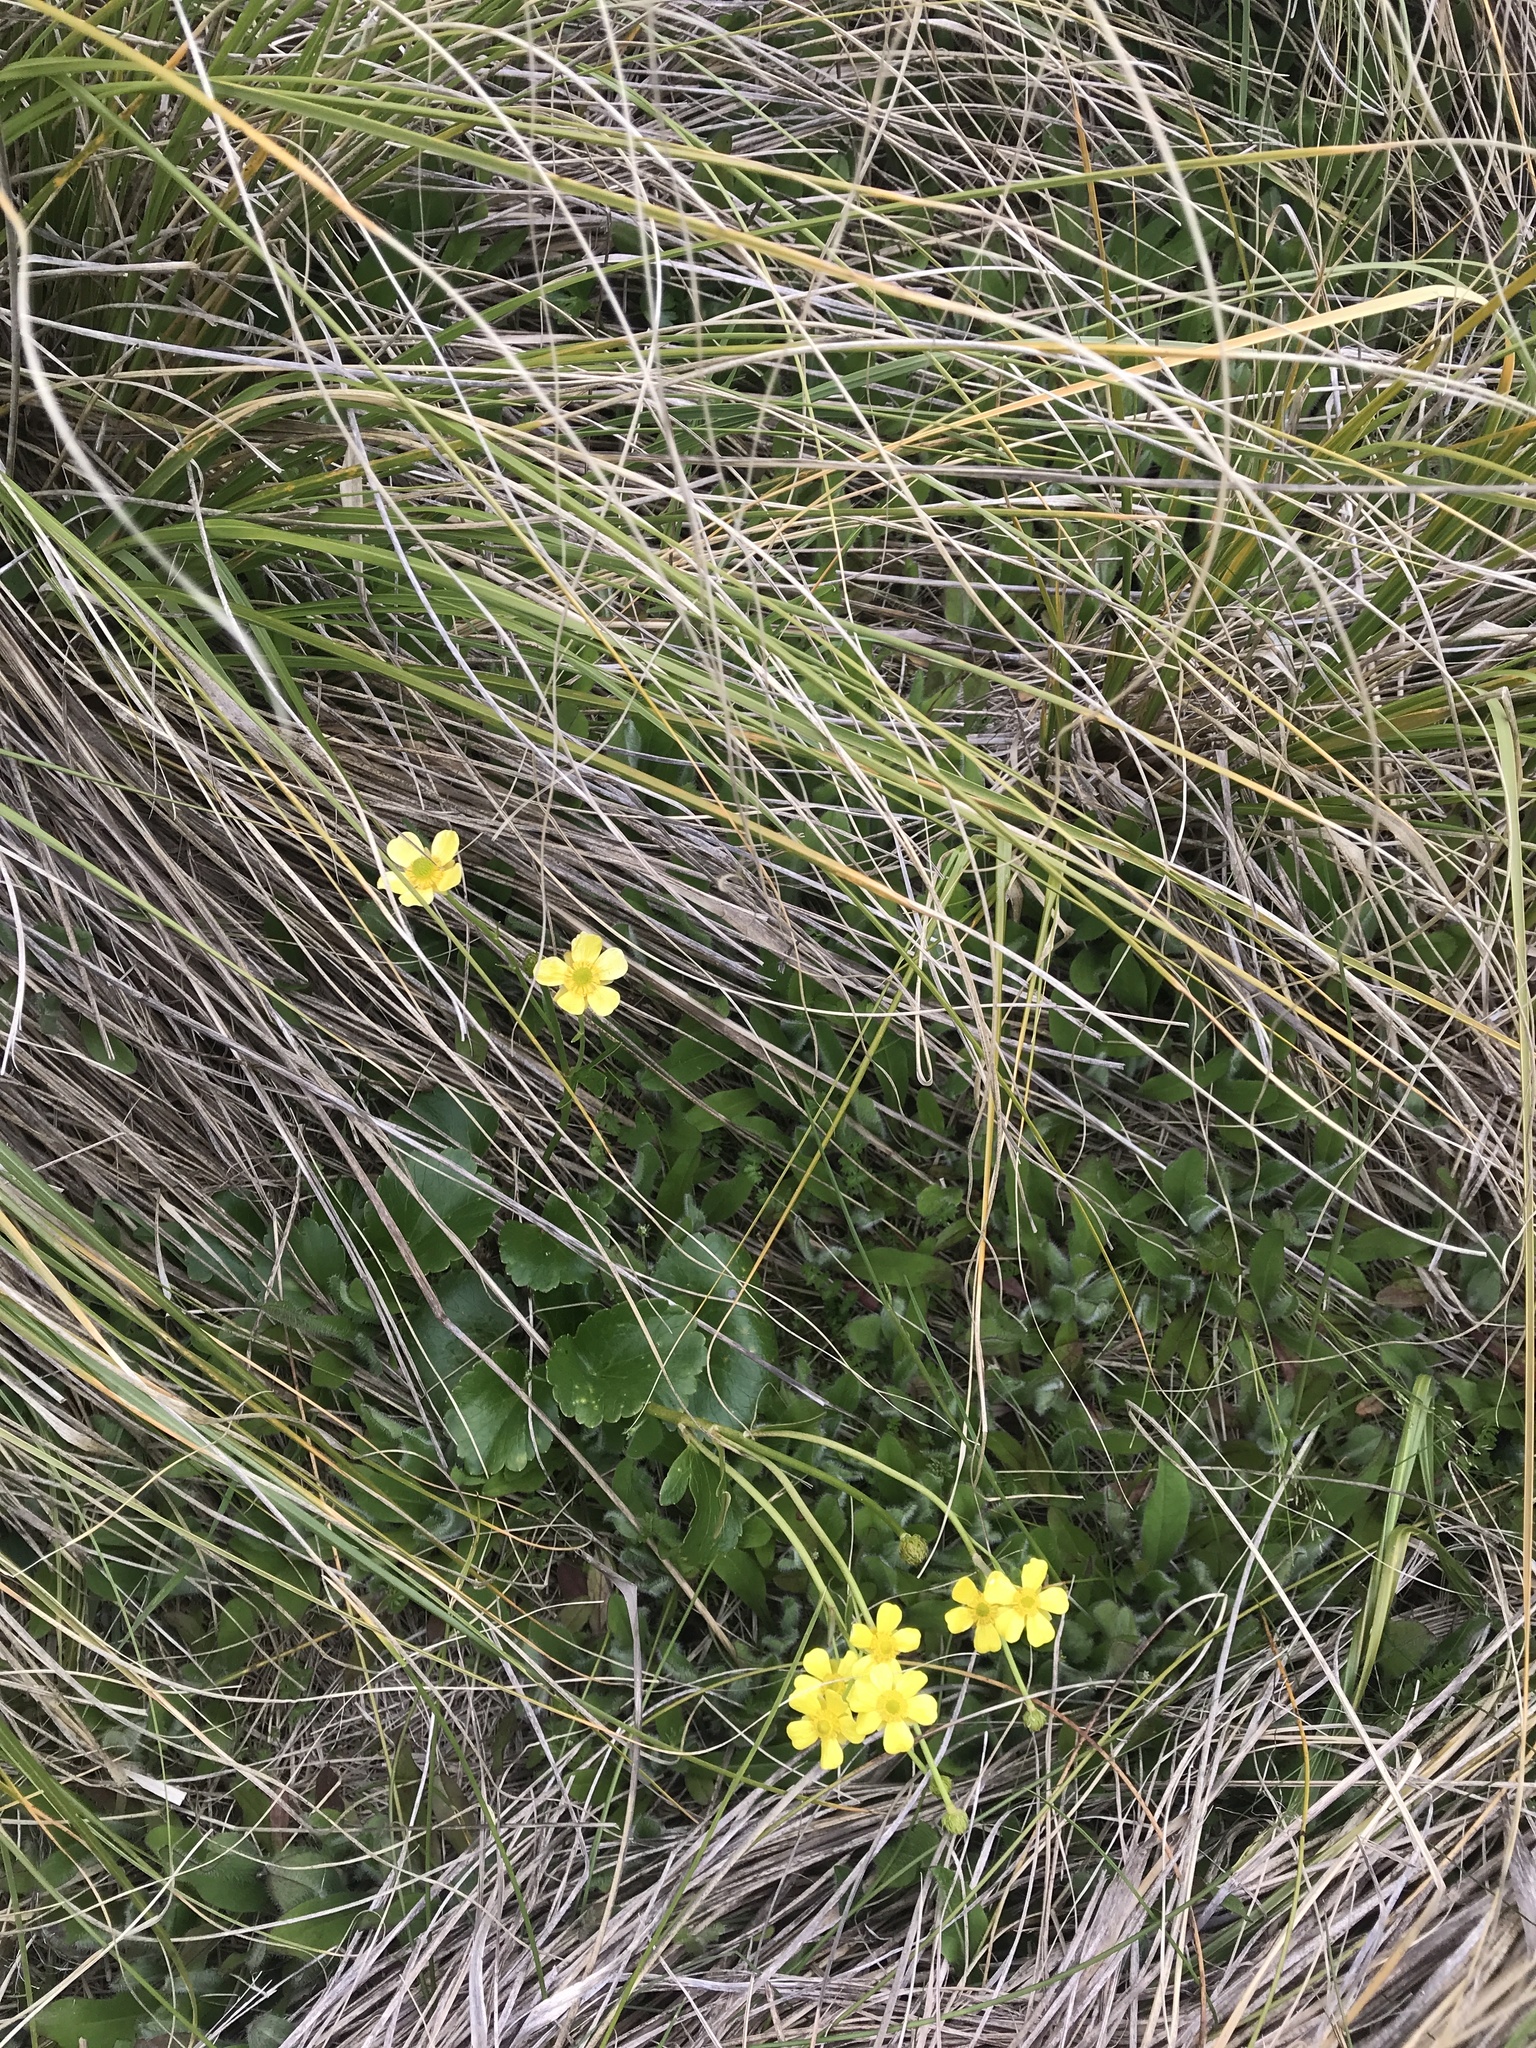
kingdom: Plantae
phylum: Tracheophyta
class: Magnoliopsida
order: Ranunculales
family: Ranunculaceae
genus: Ranunculus
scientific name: Ranunculus insignis
